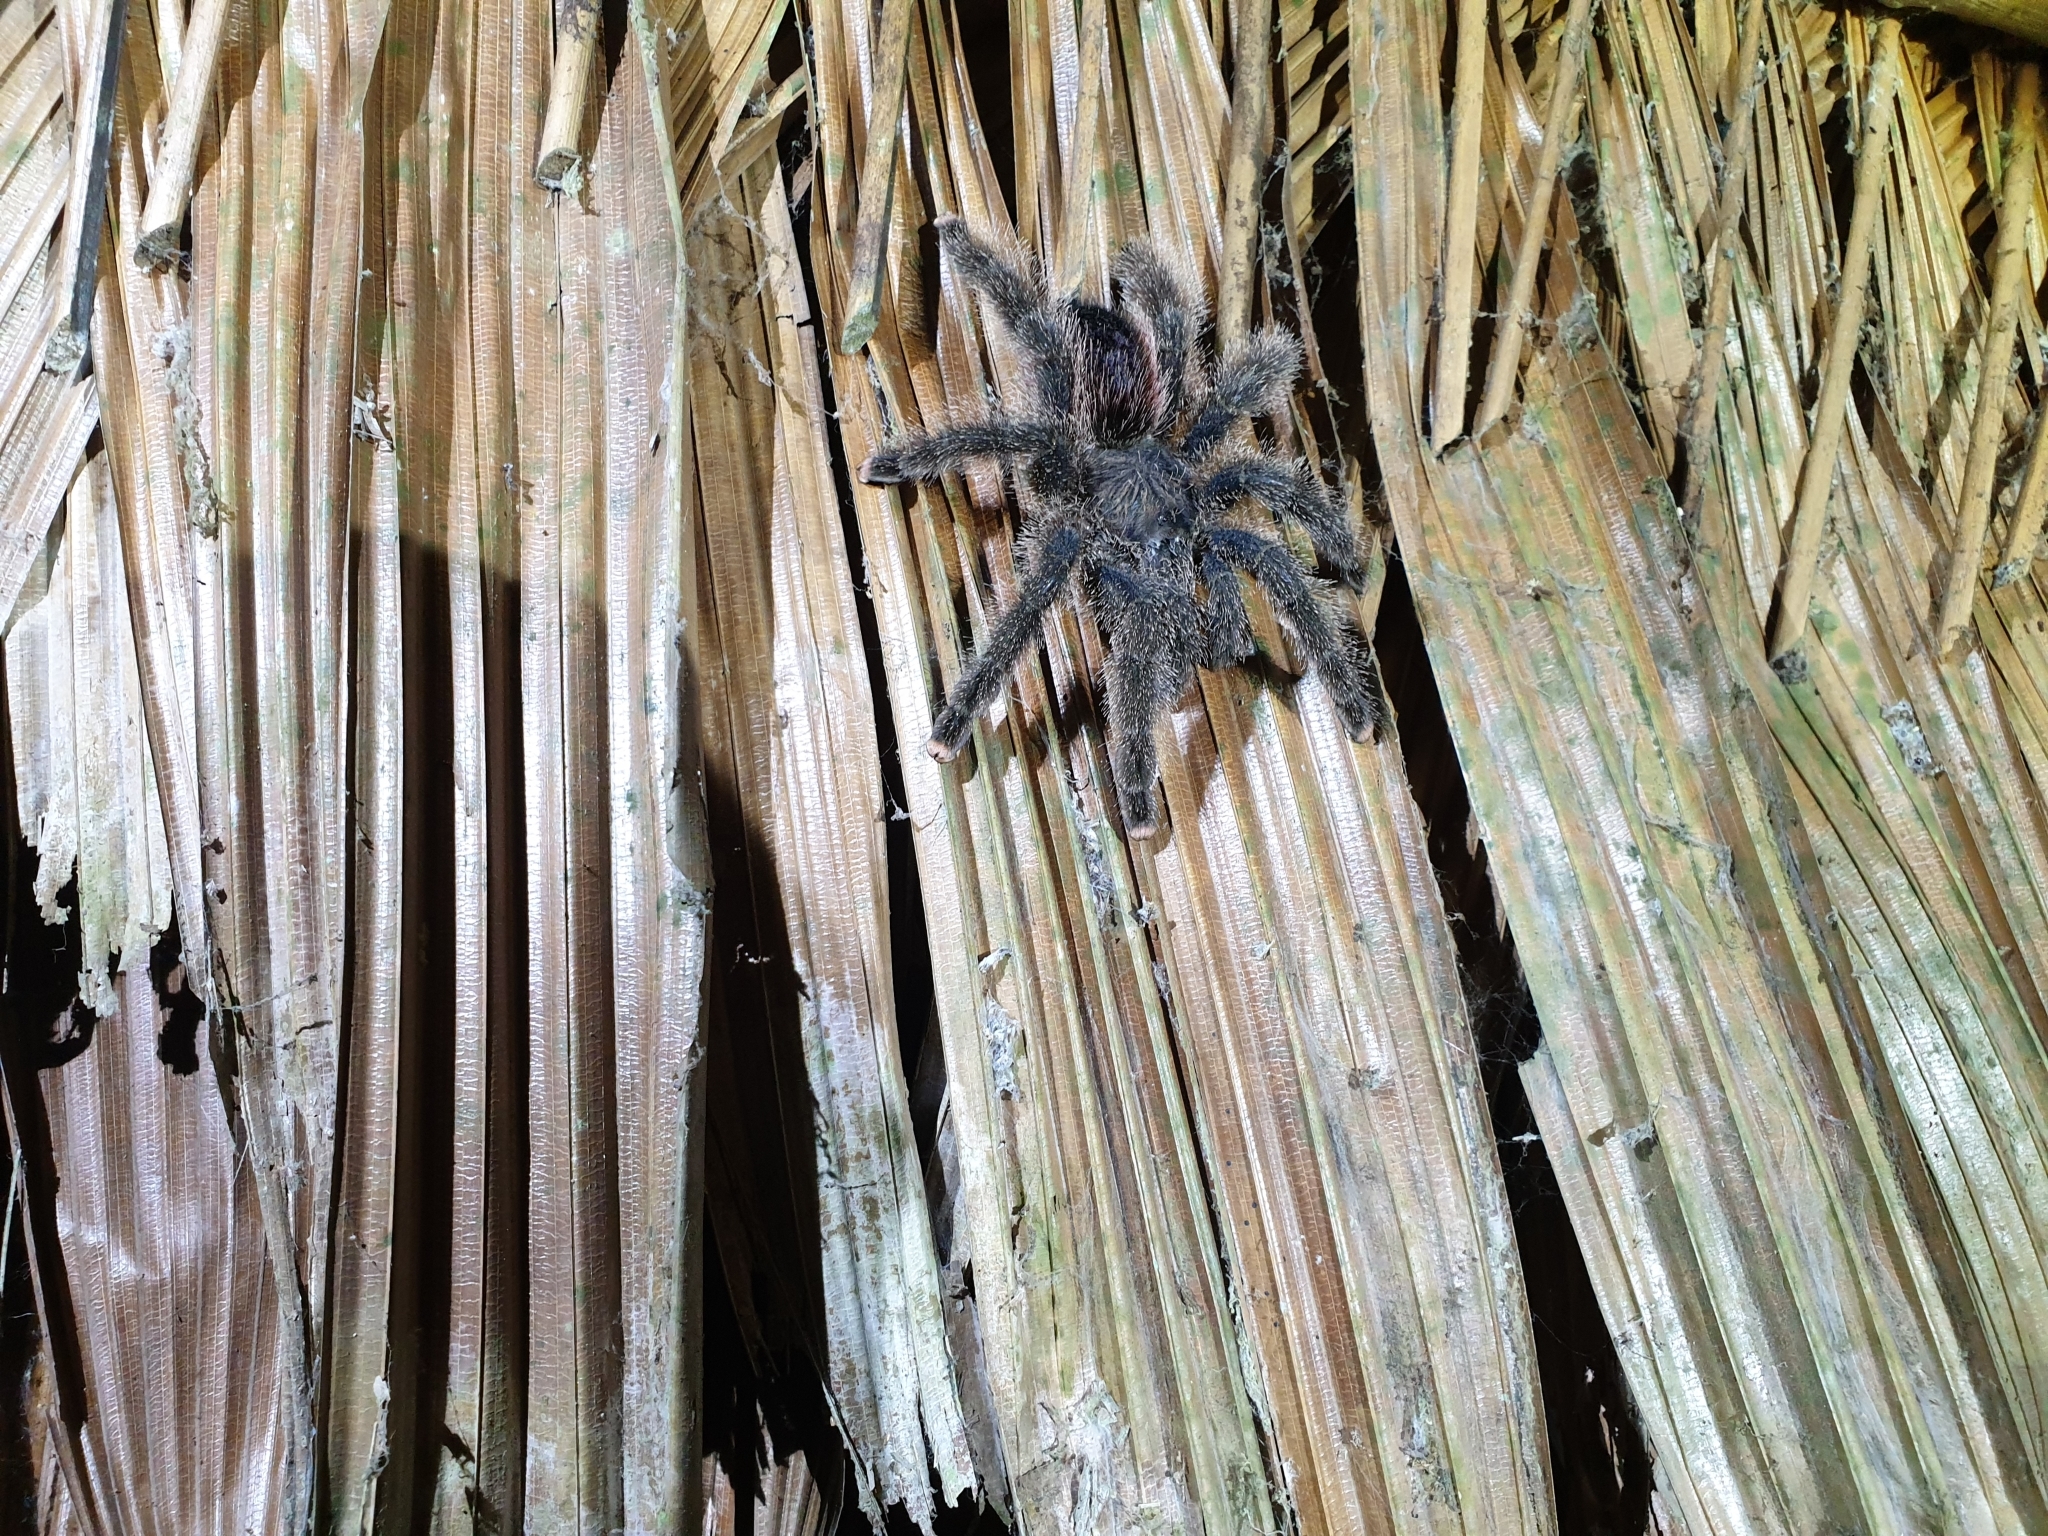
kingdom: Animalia
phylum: Arthropoda
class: Arachnida
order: Araneae
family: Theraphosidae
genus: Avicularia
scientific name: Avicularia juruensis
